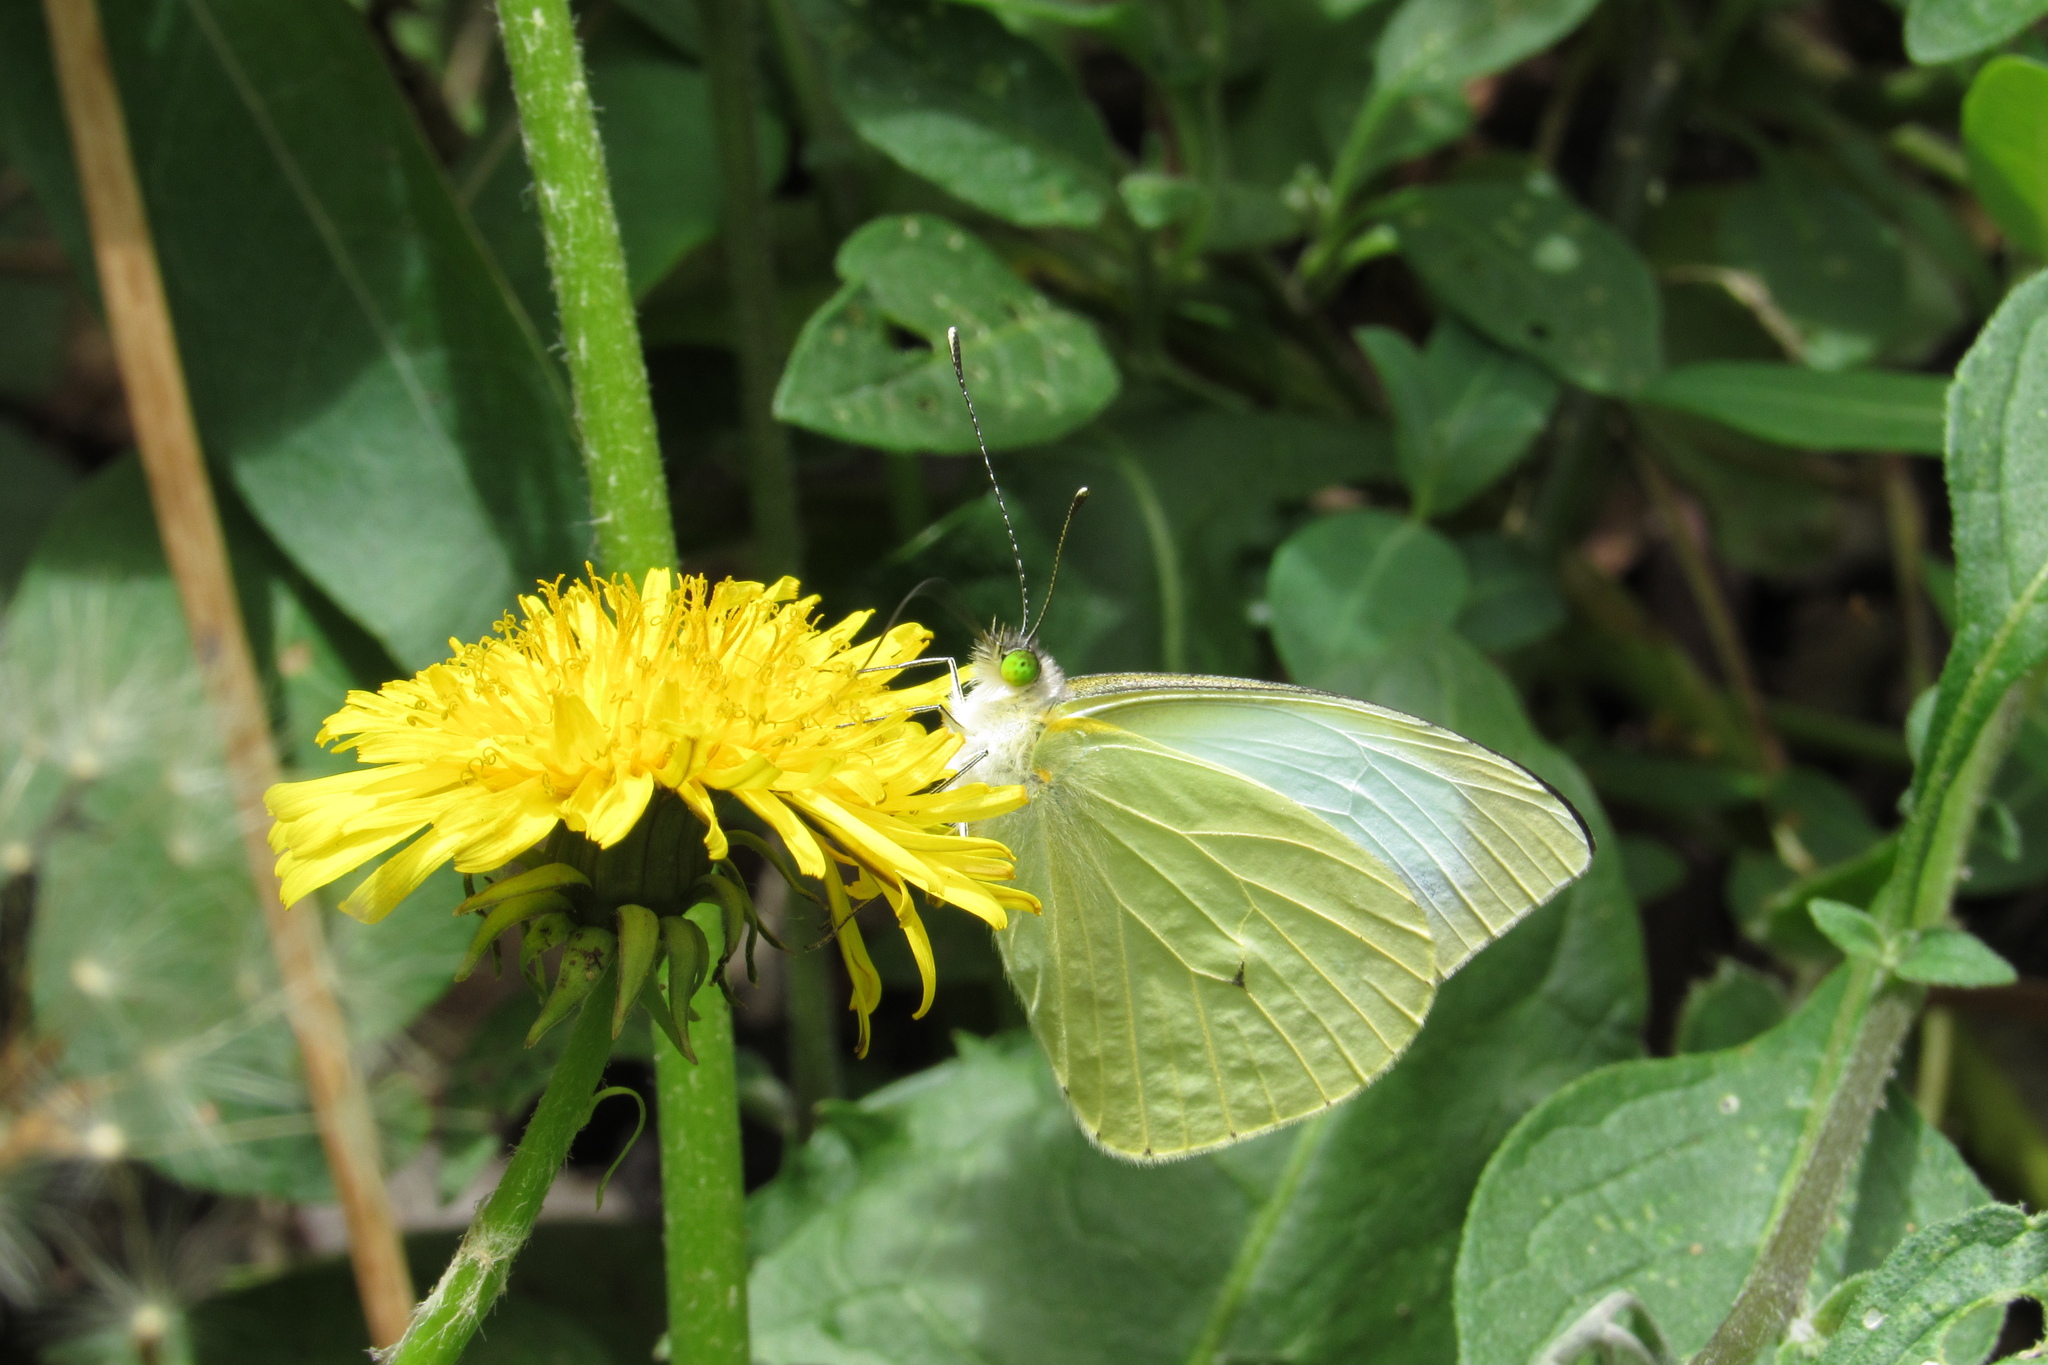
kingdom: Animalia
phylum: Arthropoda
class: Insecta
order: Lepidoptera
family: Pieridae
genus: Leptophobia
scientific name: Leptophobia aripa
